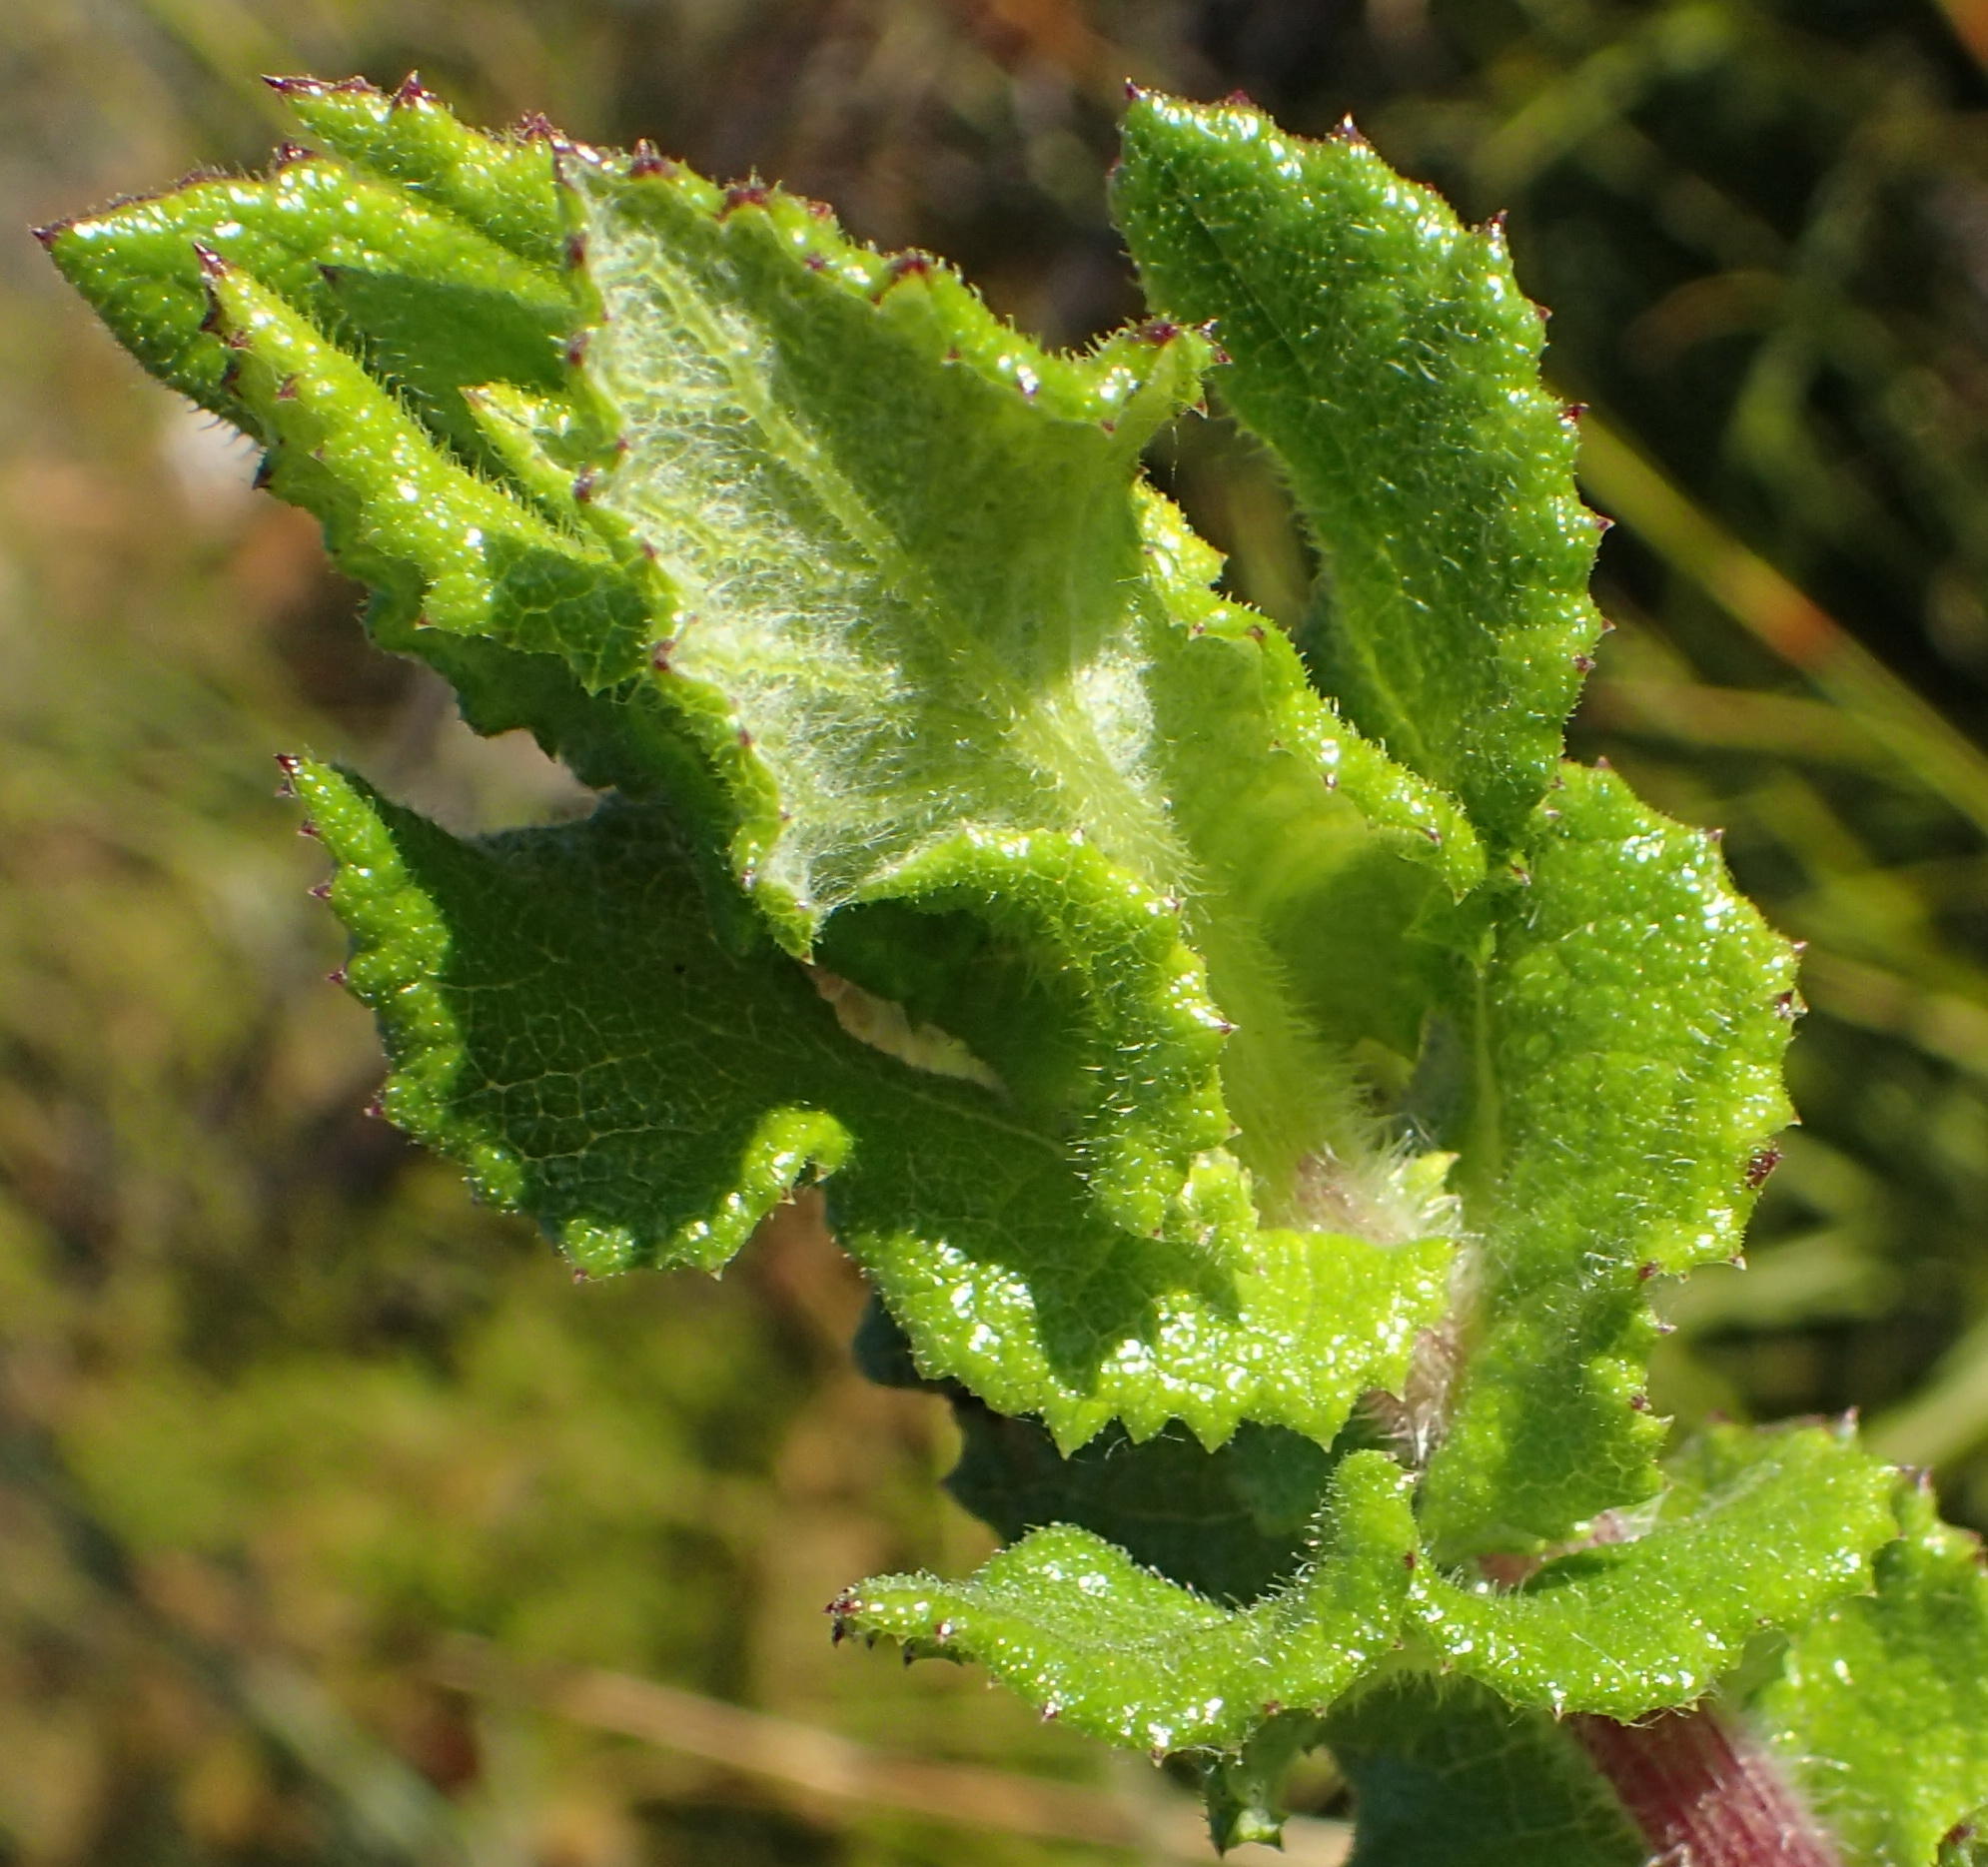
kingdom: Plantae
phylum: Tracheophyta
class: Magnoliopsida
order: Asterales
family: Asteraceae
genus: Senecio
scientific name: Senecio rigidus
